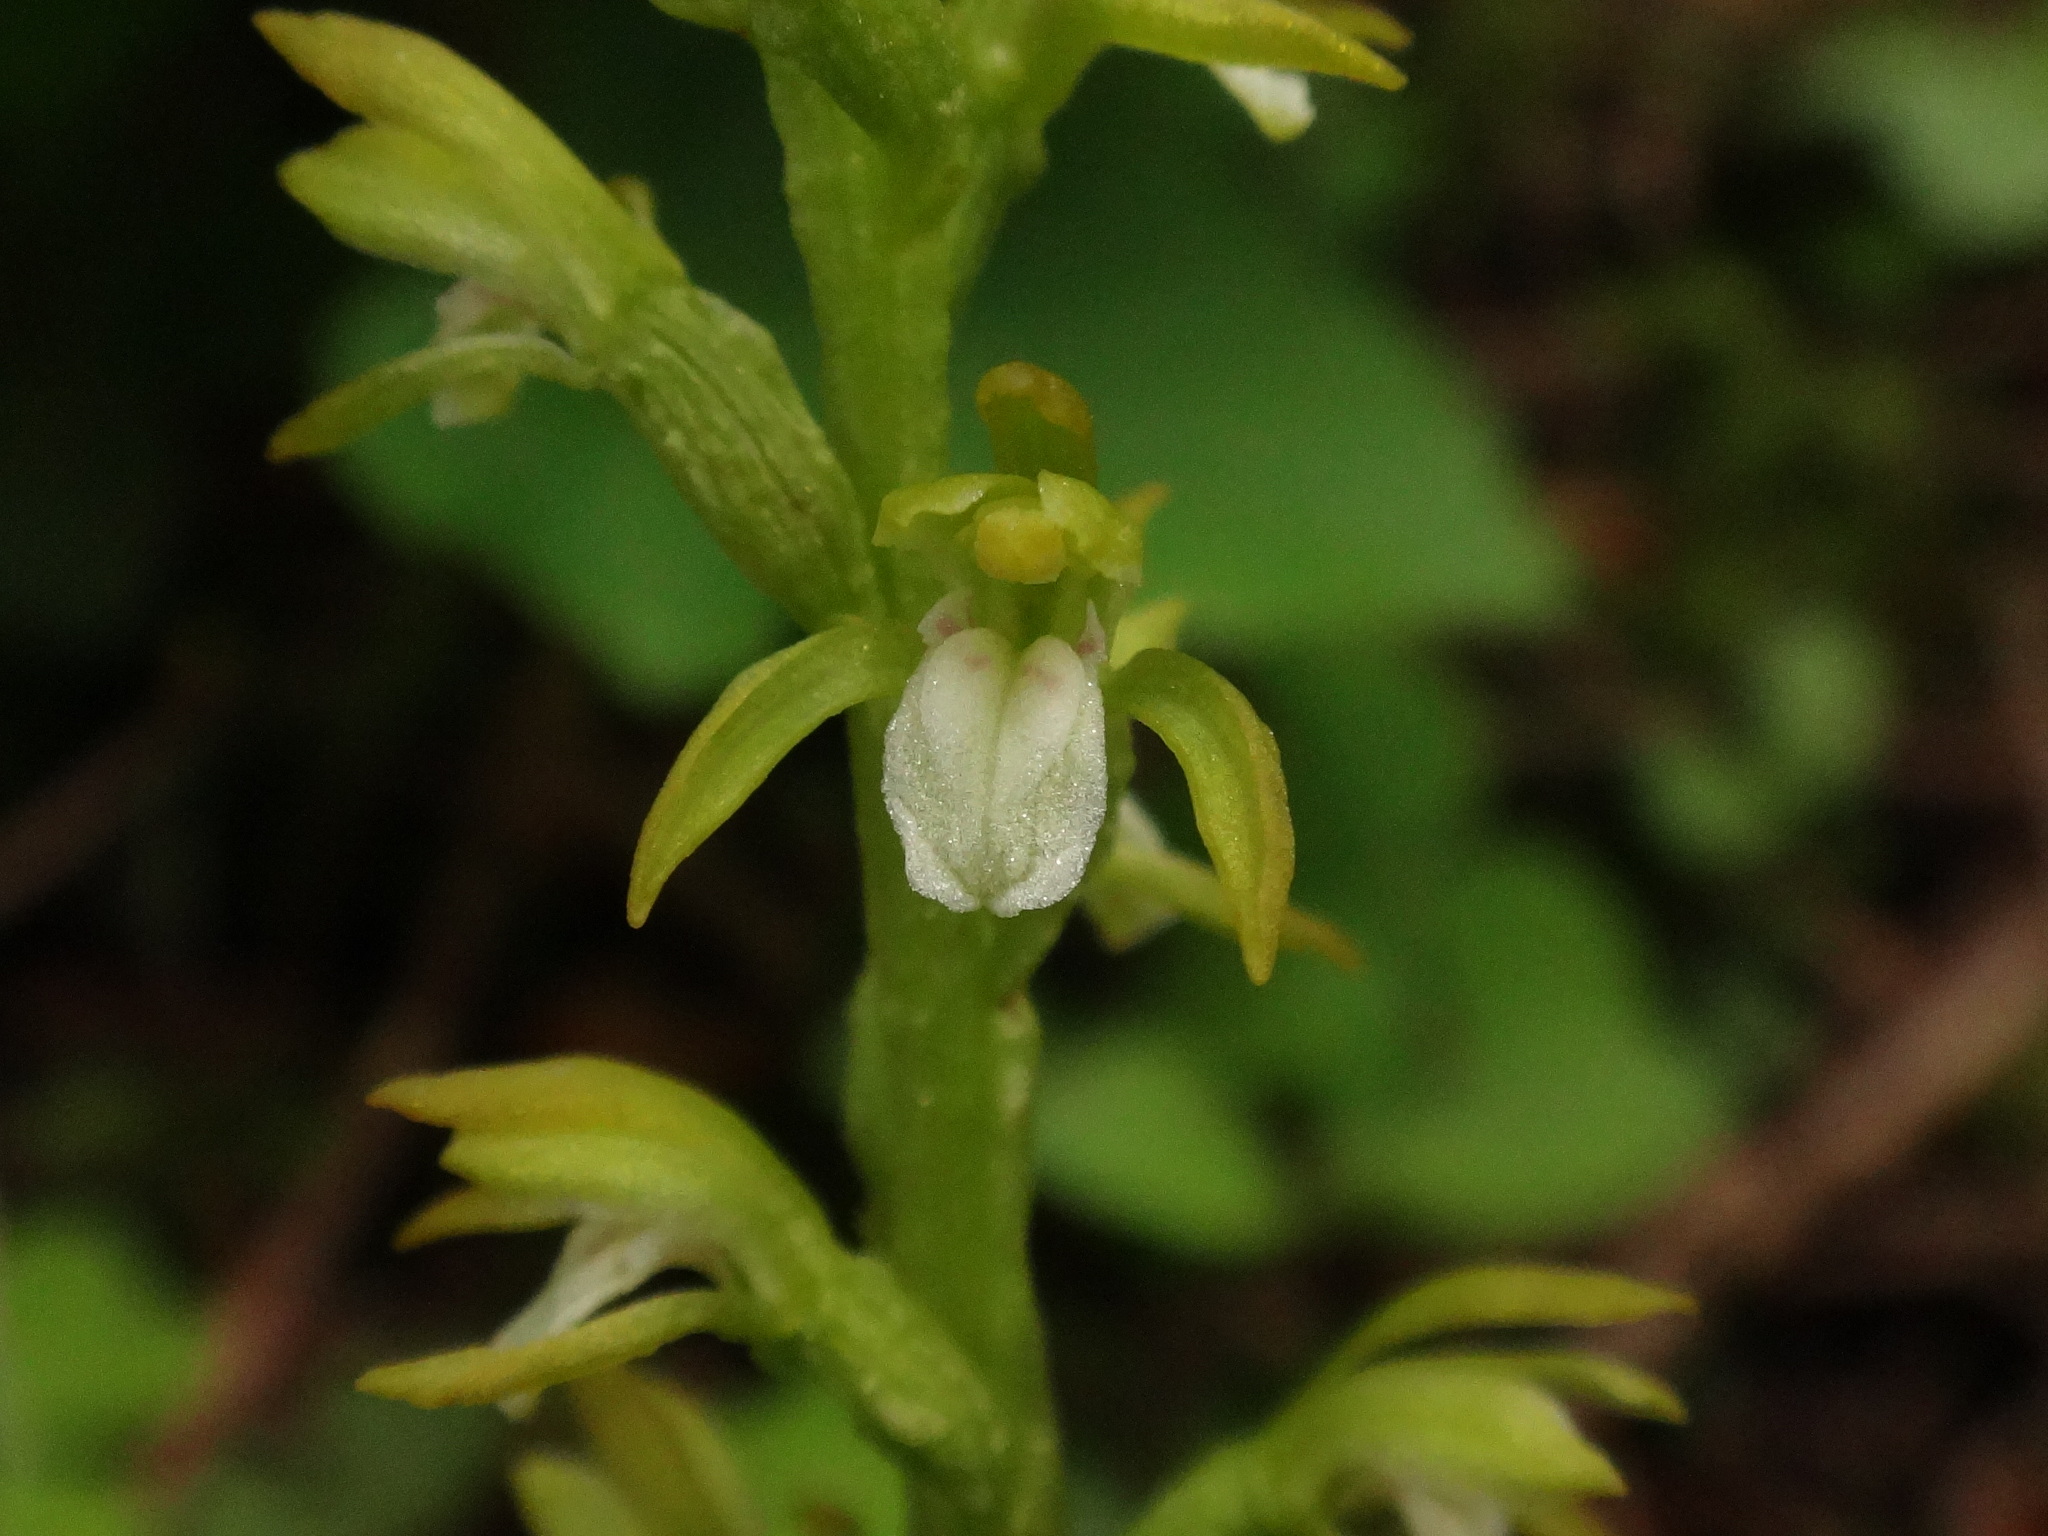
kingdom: Plantae
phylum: Tracheophyta
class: Liliopsida
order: Asparagales
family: Orchidaceae
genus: Corallorhiza
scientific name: Corallorhiza trifida
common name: Yellow coralroot
